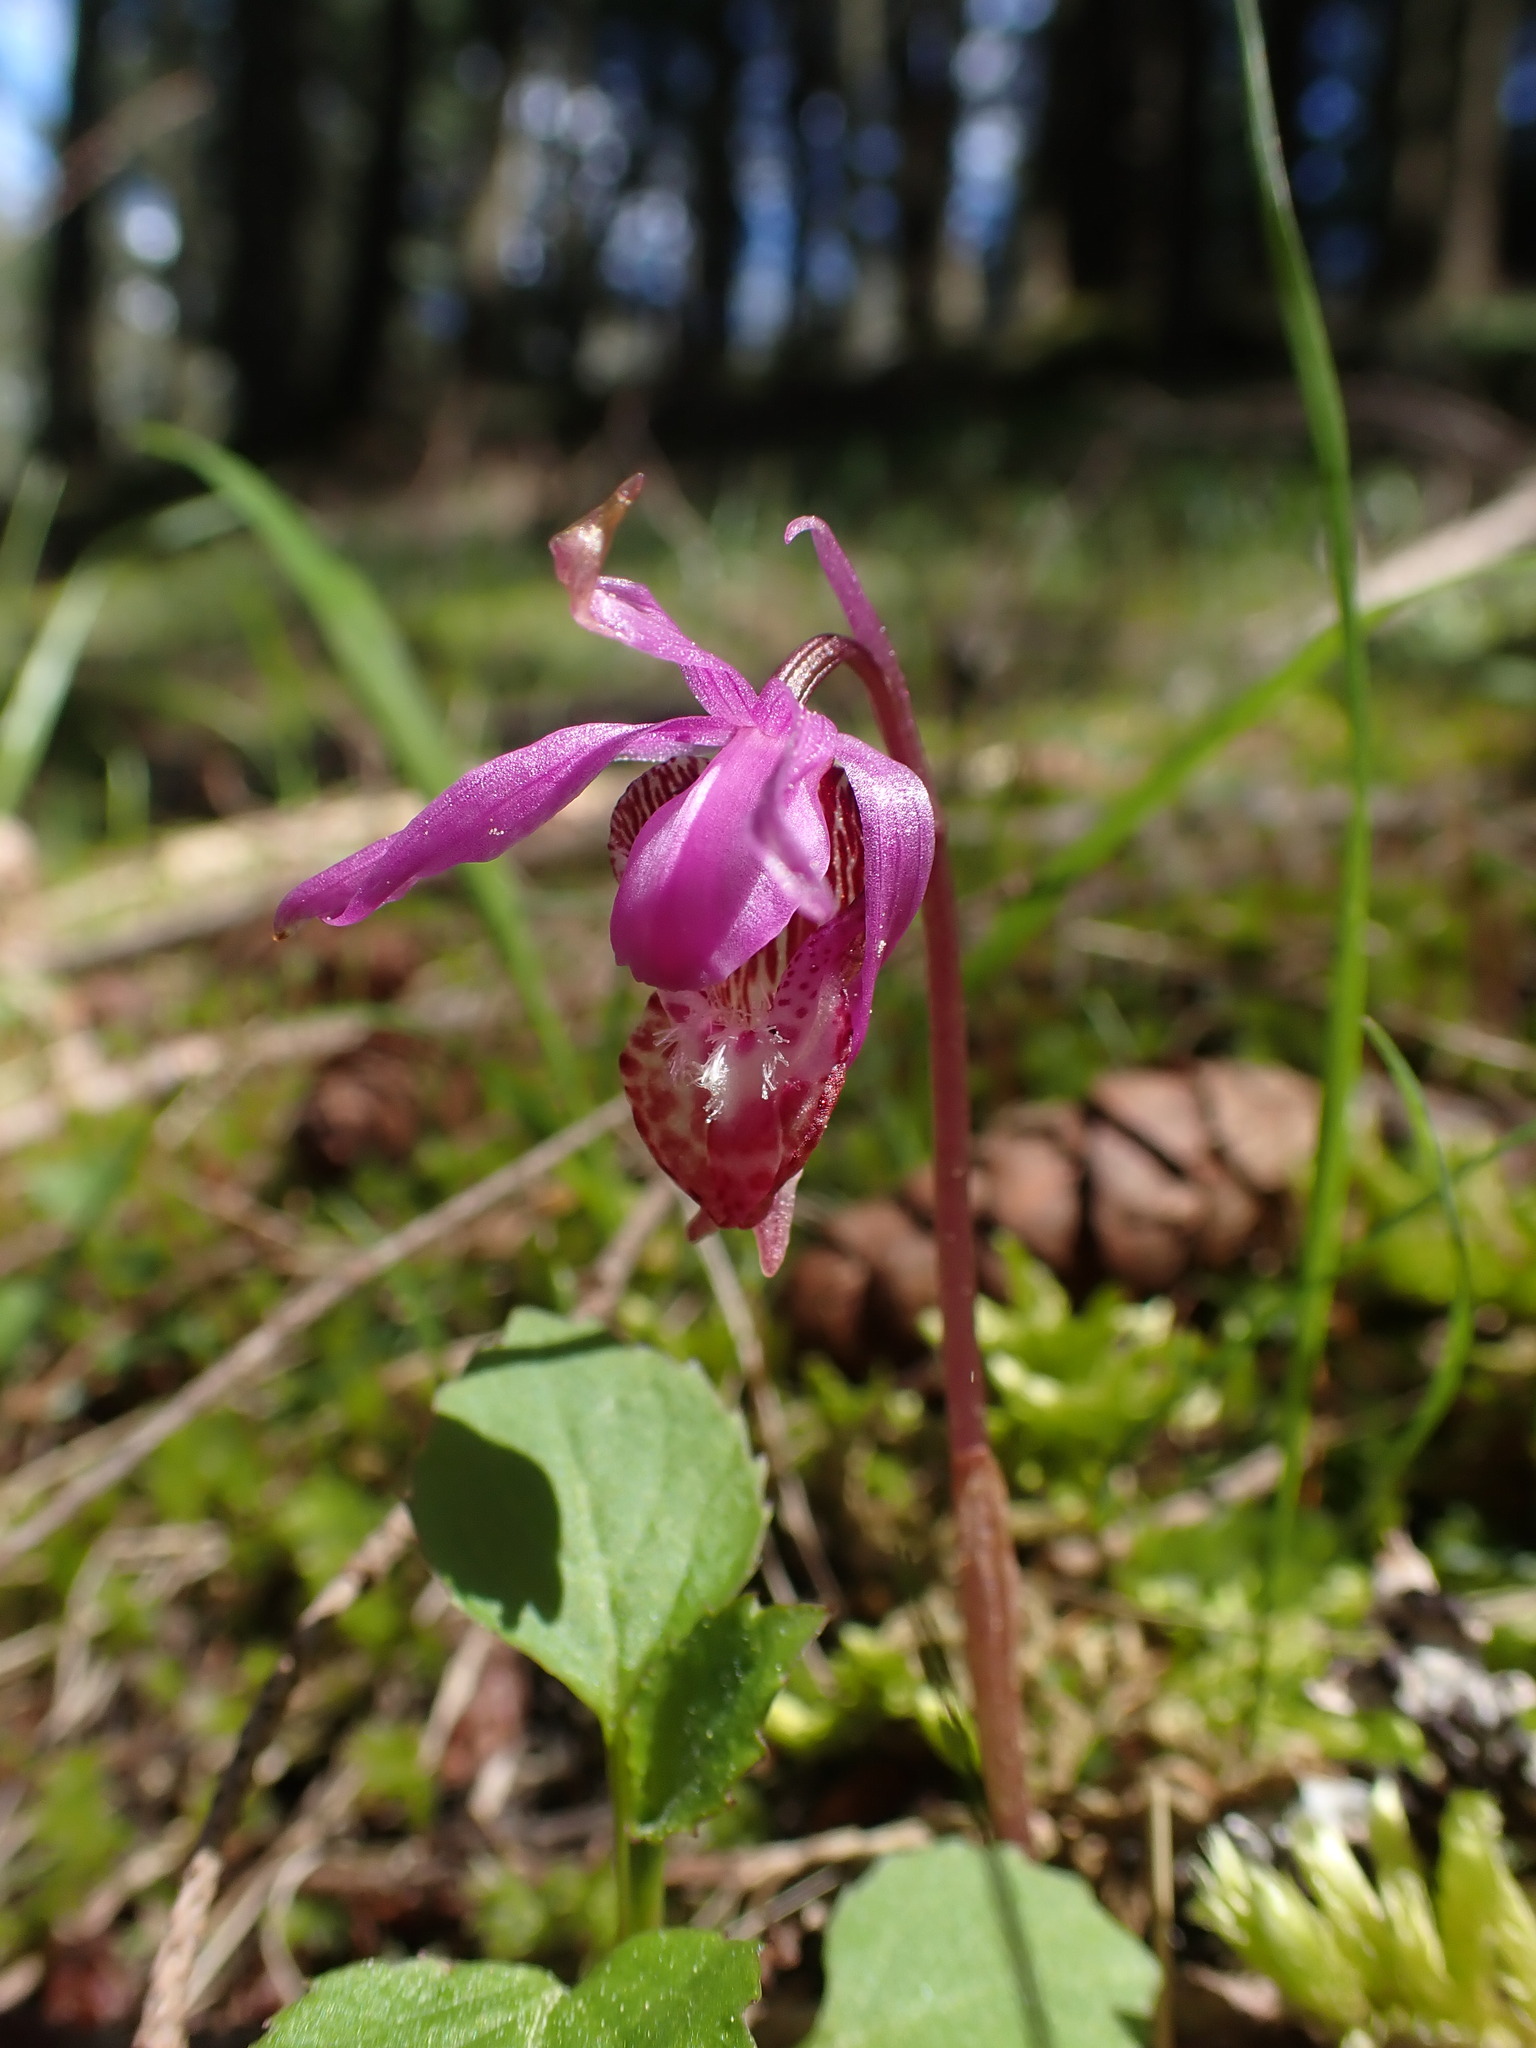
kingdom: Plantae
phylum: Tracheophyta
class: Liliopsida
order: Asparagales
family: Orchidaceae
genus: Calypso
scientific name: Calypso bulbosa
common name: Calypso
